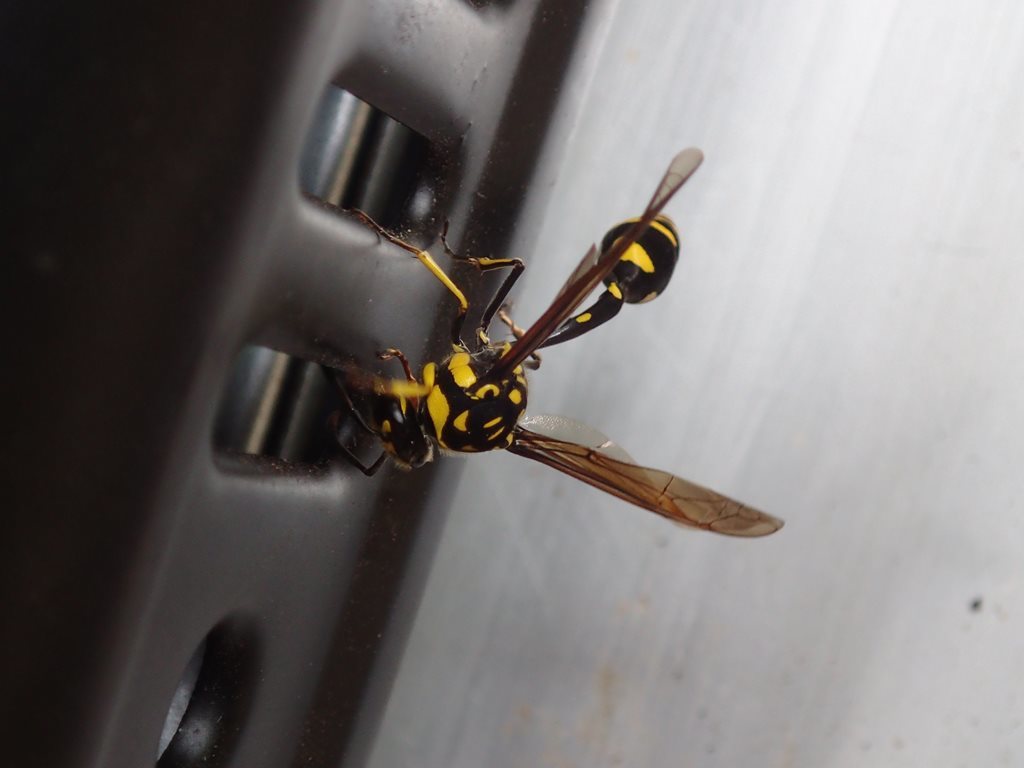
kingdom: Animalia
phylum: Arthropoda
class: Insecta
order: Hymenoptera
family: Eumenidae
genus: Phimenes
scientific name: Phimenes arcuatus
